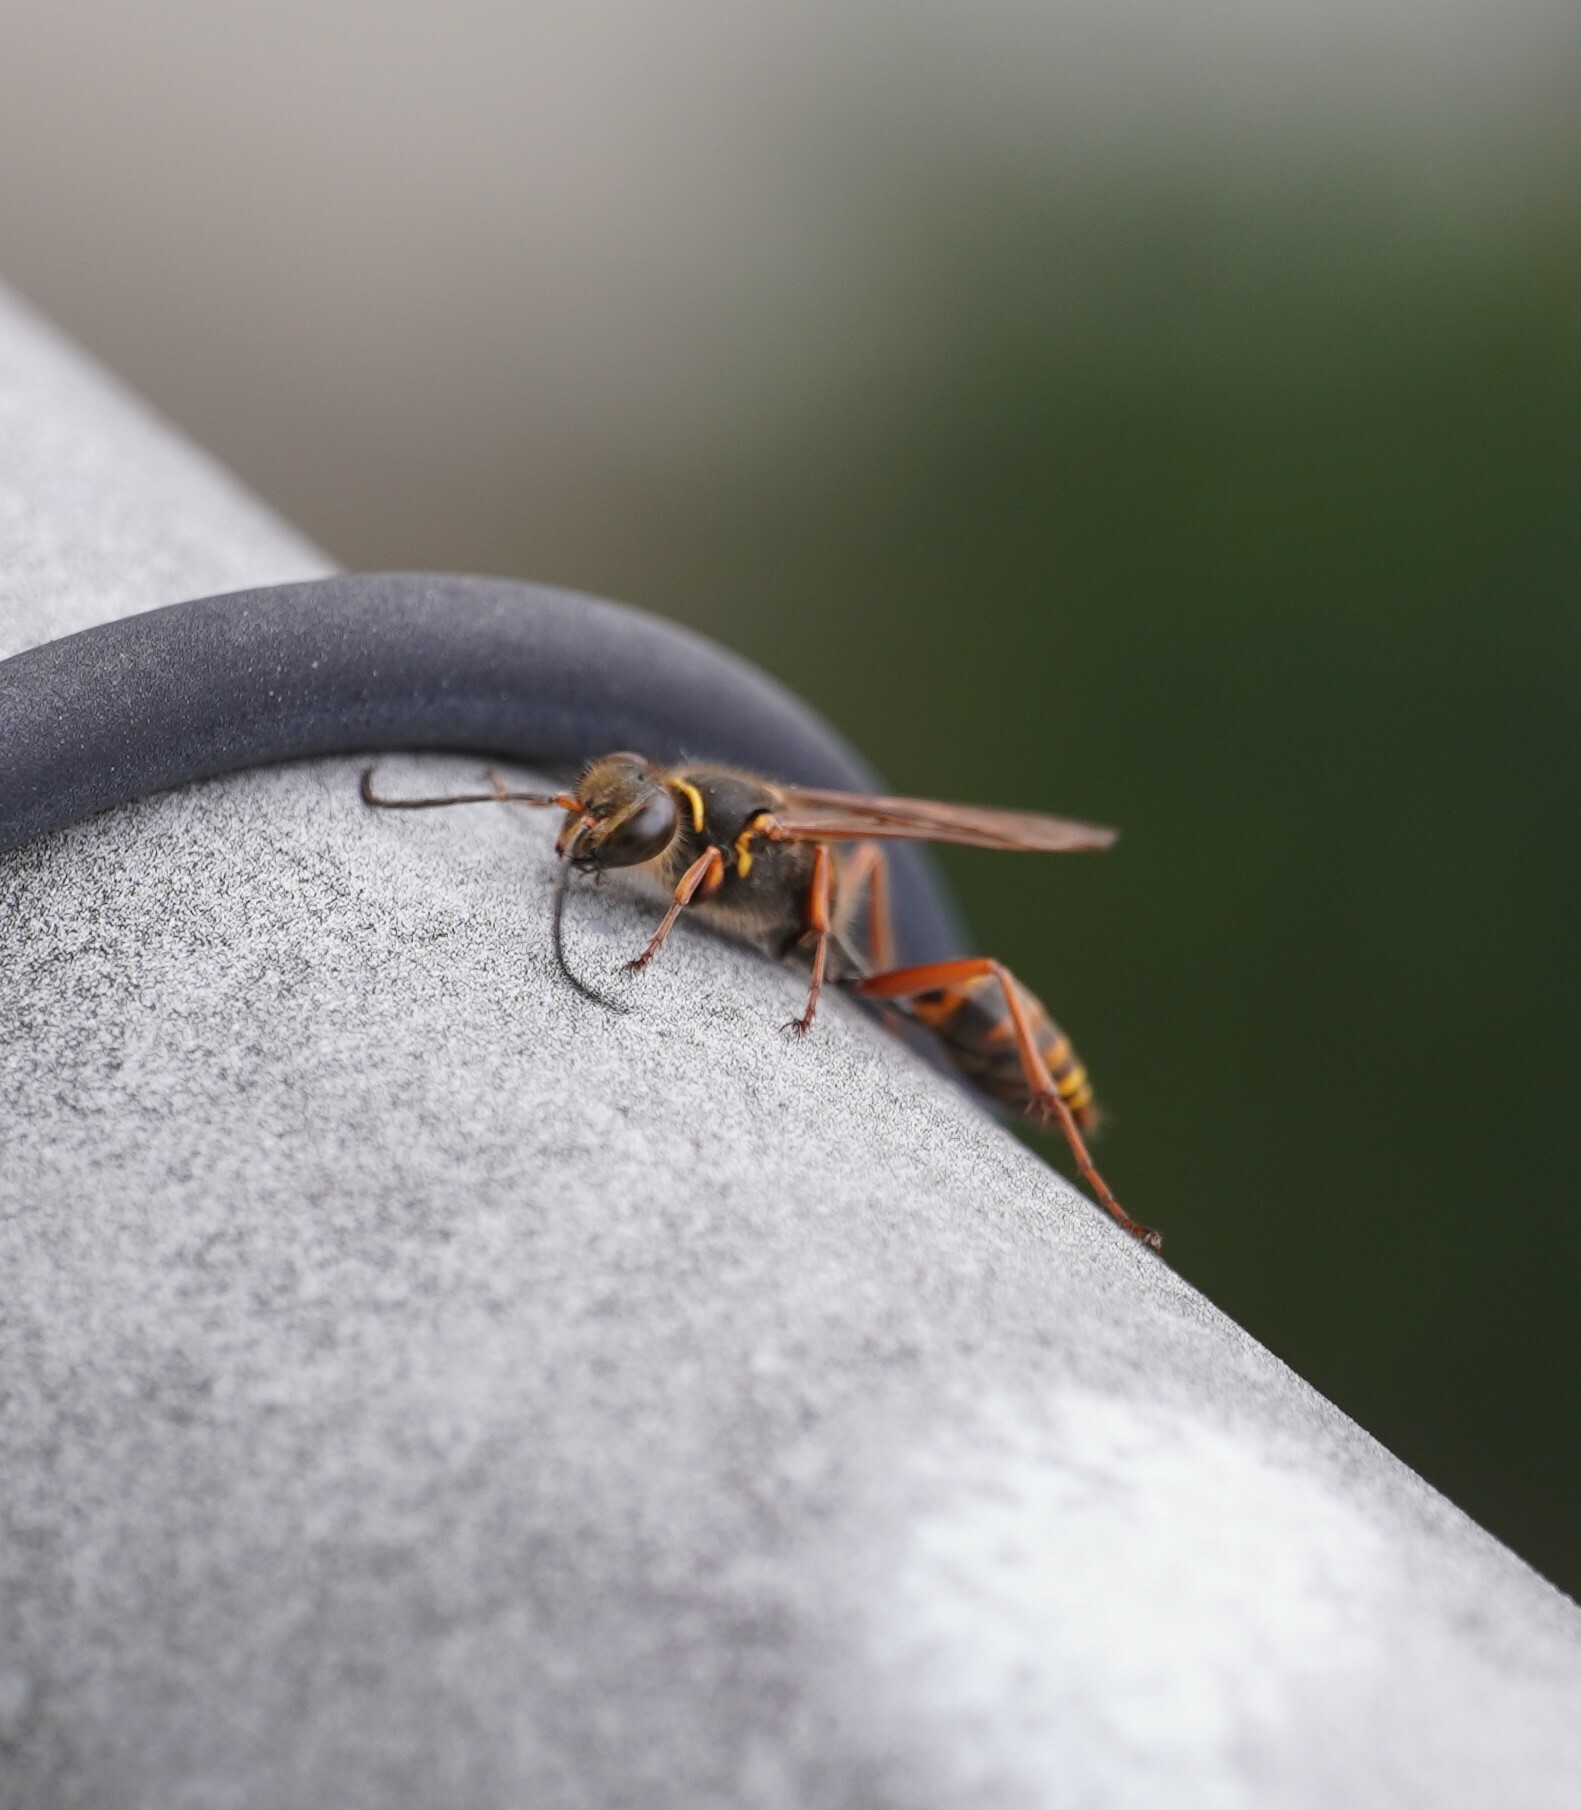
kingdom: Animalia
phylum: Arthropoda
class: Insecta
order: Hymenoptera
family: Sphecidae
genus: Sceliphron
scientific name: Sceliphron curvatum
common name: Pèlopèe
